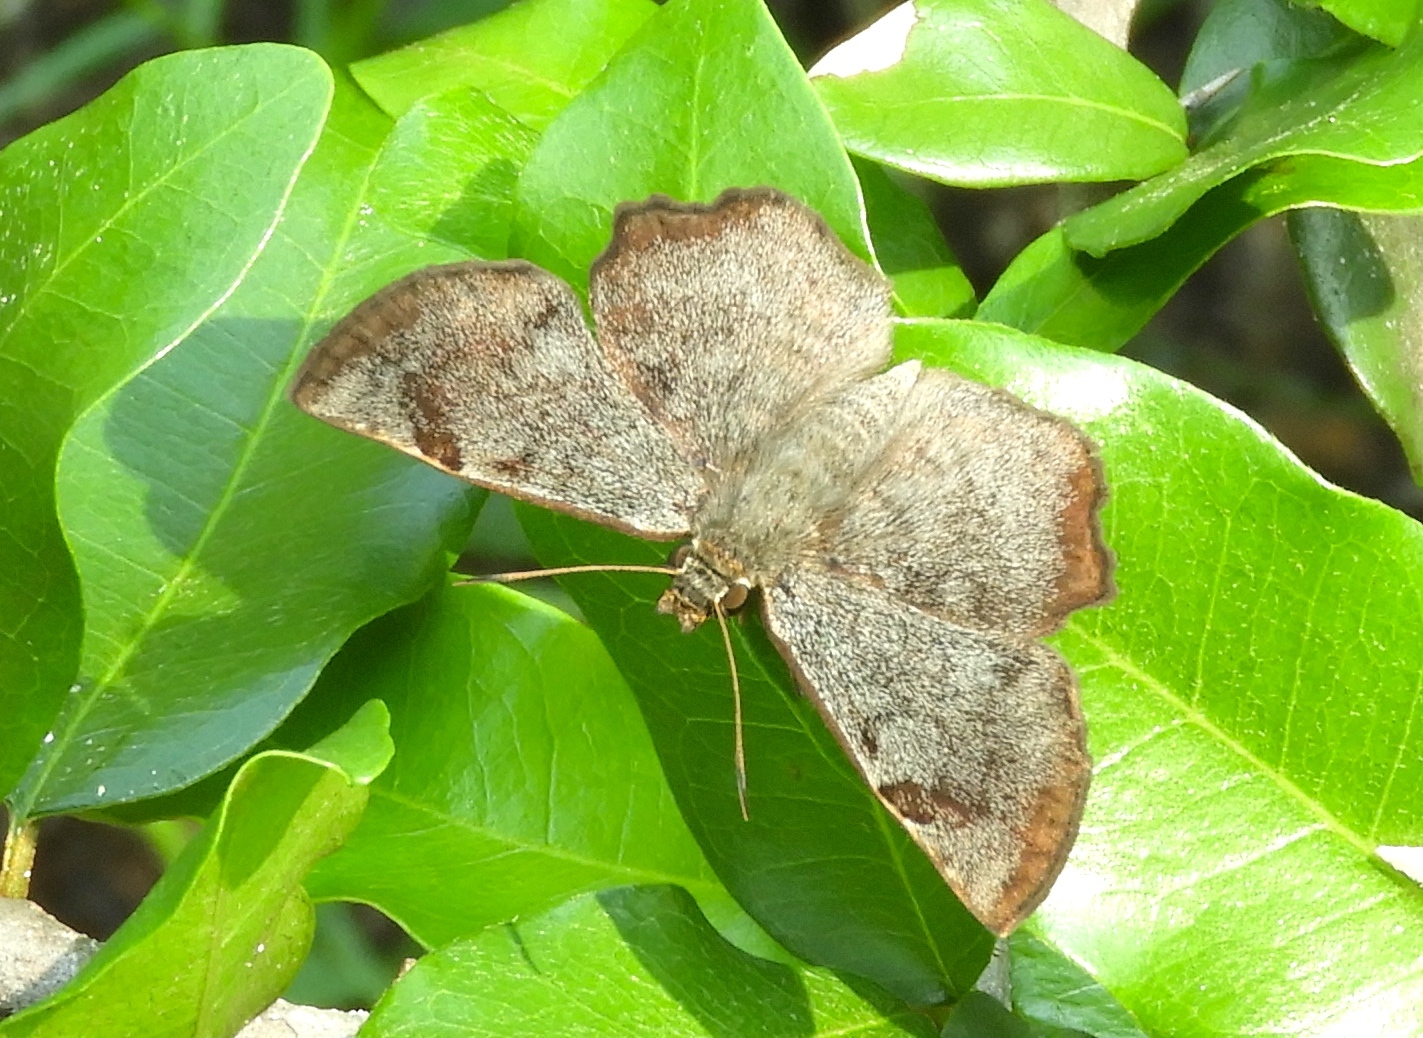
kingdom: Animalia
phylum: Arthropoda
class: Insecta
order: Lepidoptera
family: Hesperiidae
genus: Antigonus
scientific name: Antigonus erosus
